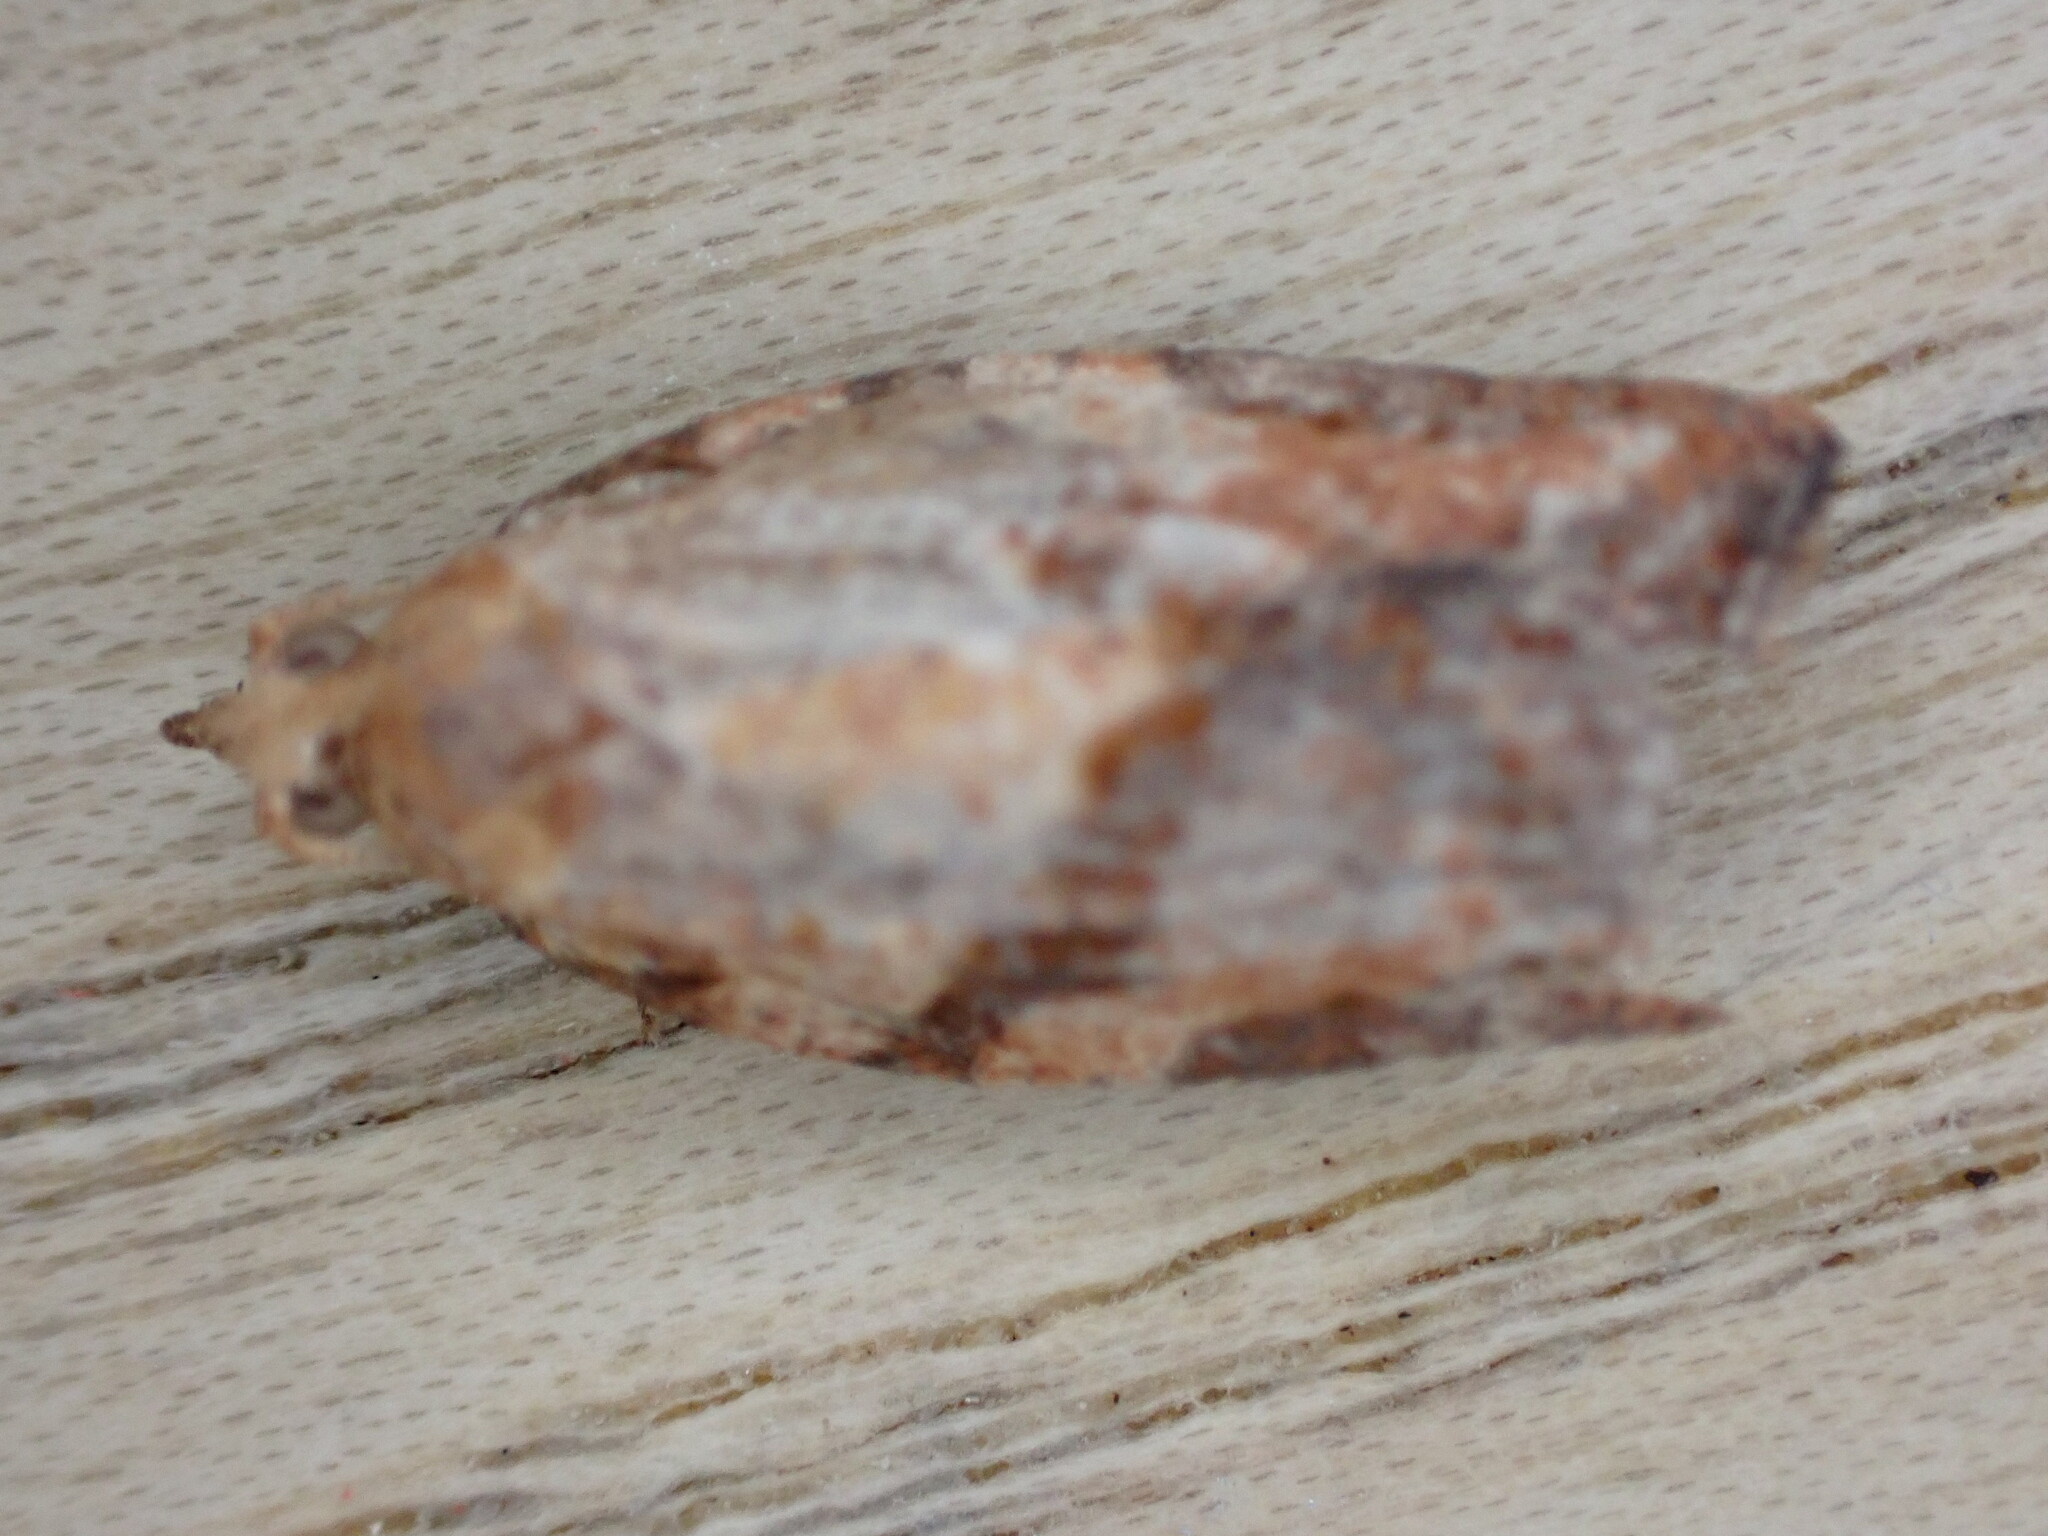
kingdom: Animalia
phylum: Arthropoda
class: Insecta
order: Lepidoptera
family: Tortricidae
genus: Epiphyas
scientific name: Epiphyas postvittana
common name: Light brown apple moth
